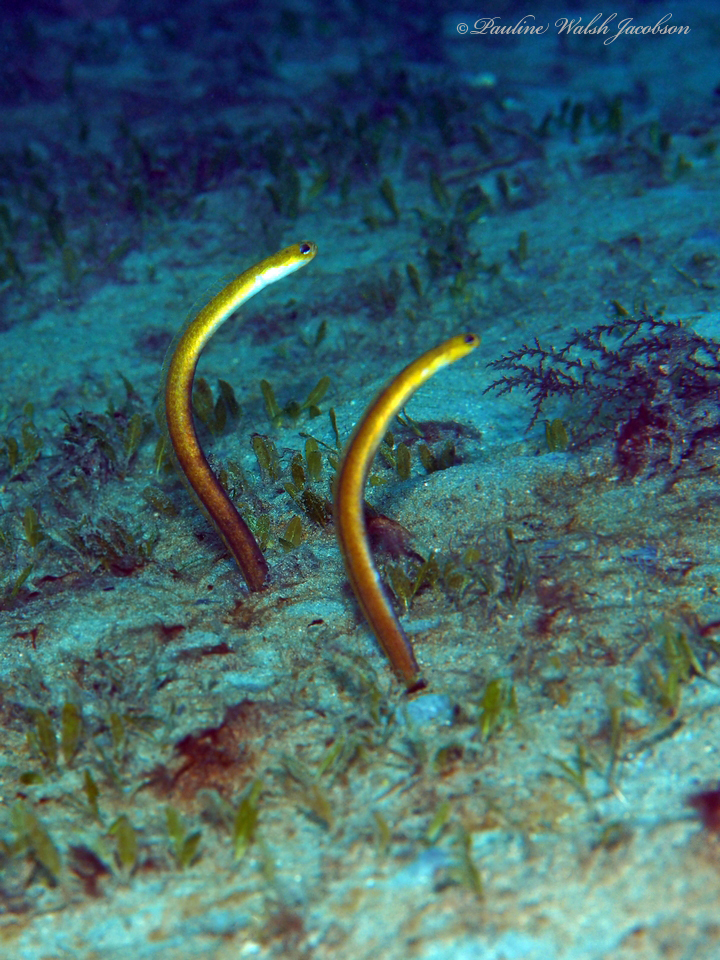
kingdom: Animalia
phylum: Chordata
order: Anguilliformes
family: Congridae
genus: Heteroconger
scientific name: Heteroconger luteolus
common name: Yellow garden eel
